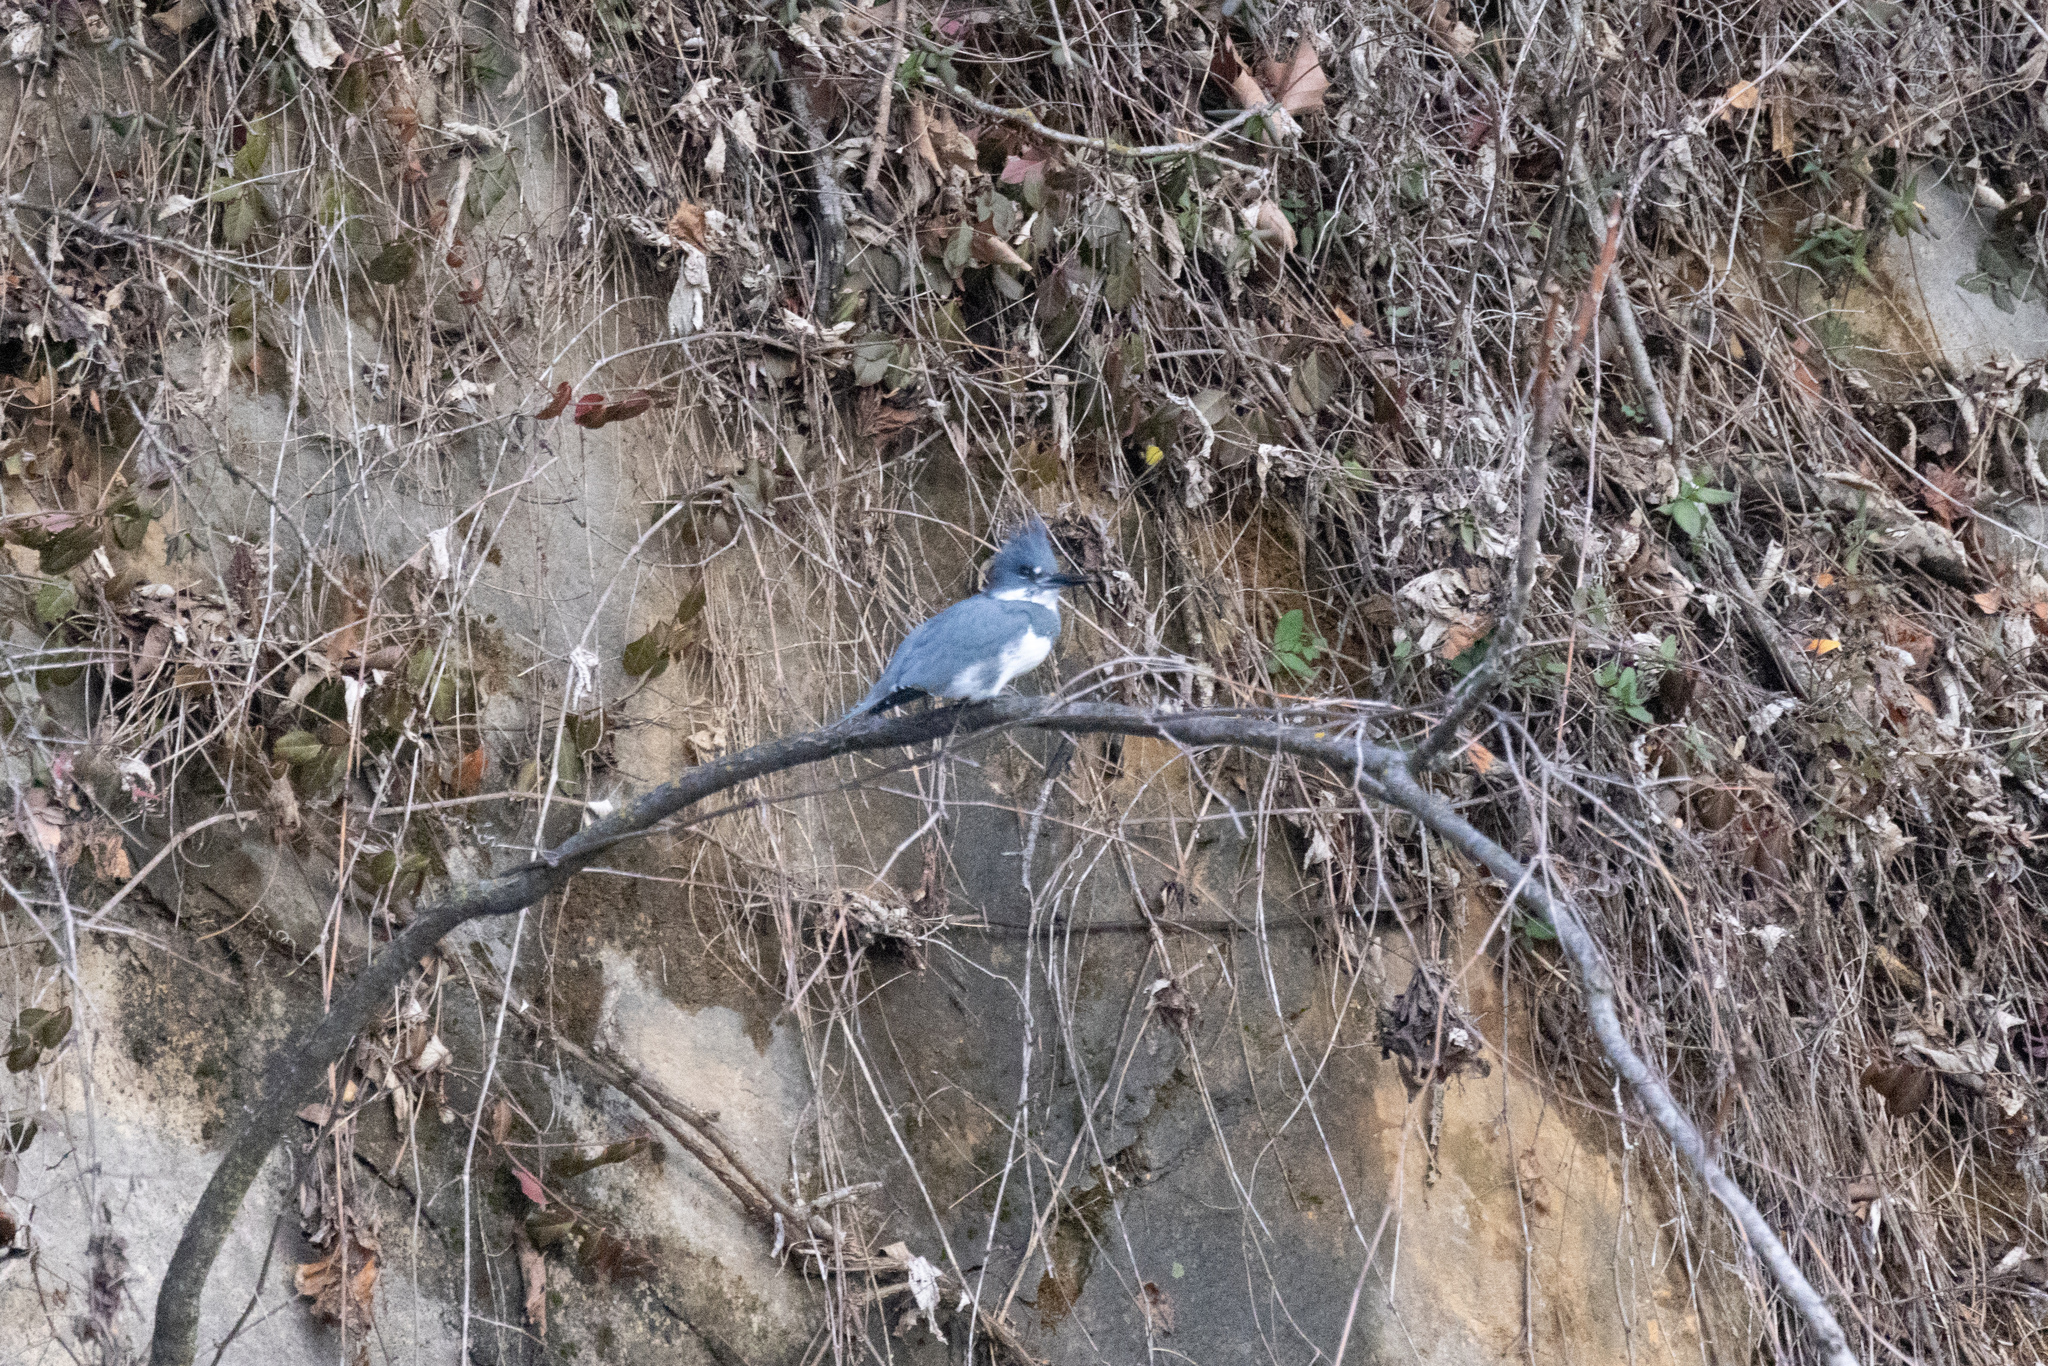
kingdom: Animalia
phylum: Chordata
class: Aves
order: Coraciiformes
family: Alcedinidae
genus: Megaceryle
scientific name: Megaceryle alcyon
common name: Belted kingfisher
